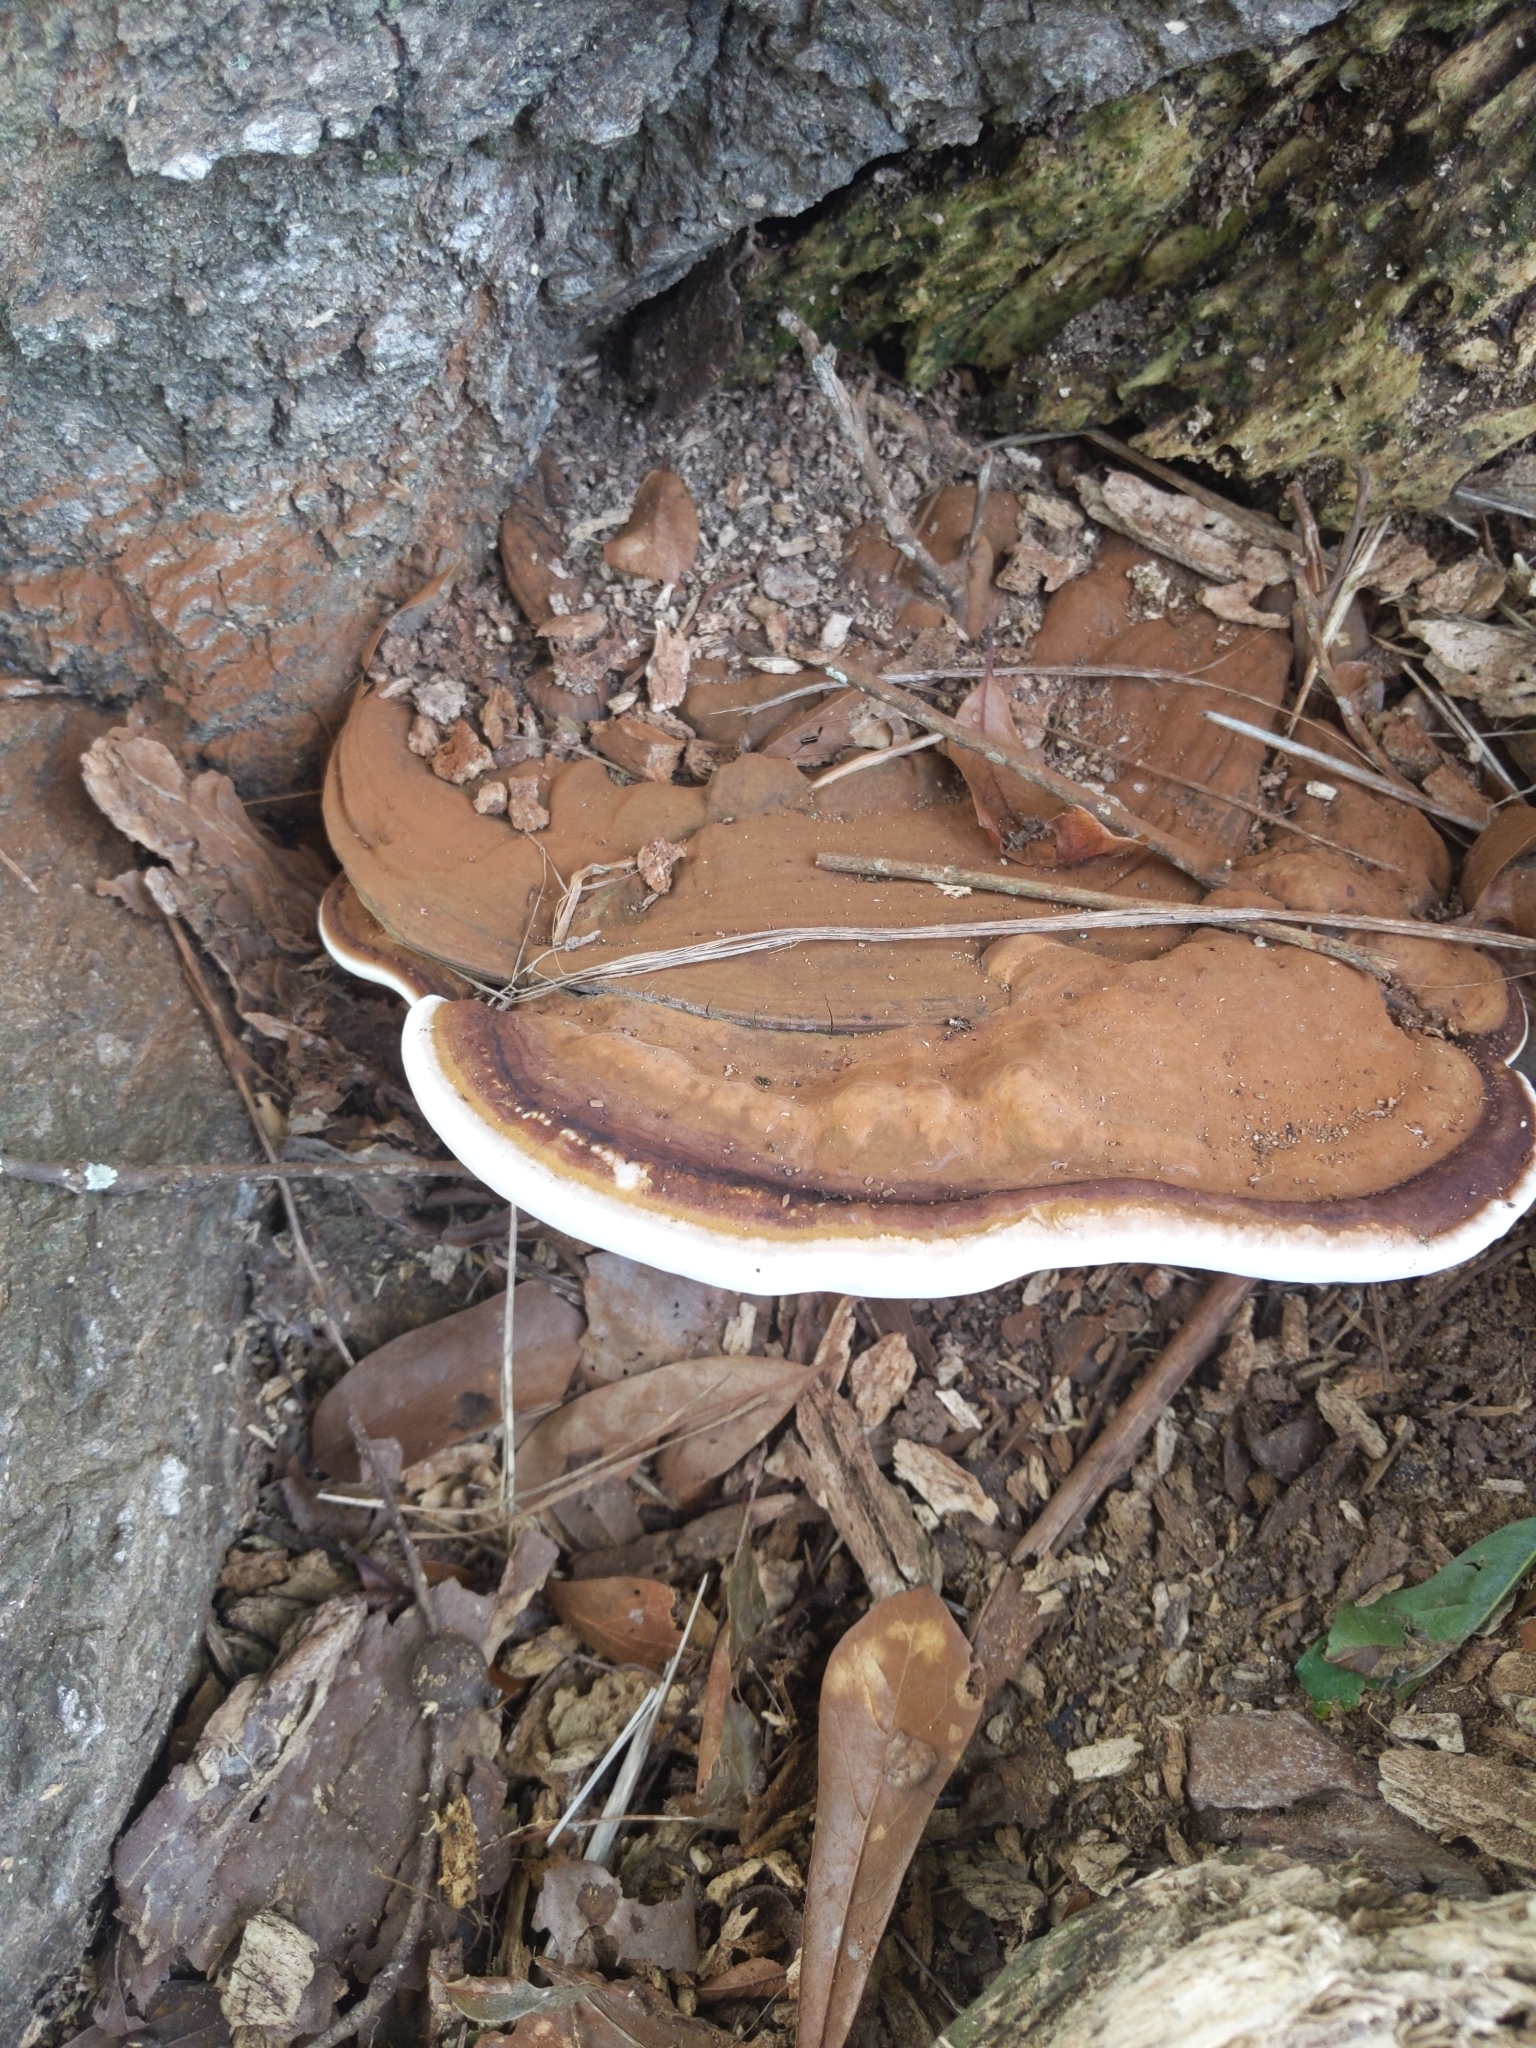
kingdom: Fungi
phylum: Basidiomycota
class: Agaricomycetes
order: Polyporales
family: Polyporaceae
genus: Ganoderma
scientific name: Ganoderma applanatum
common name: Artist's bracket
